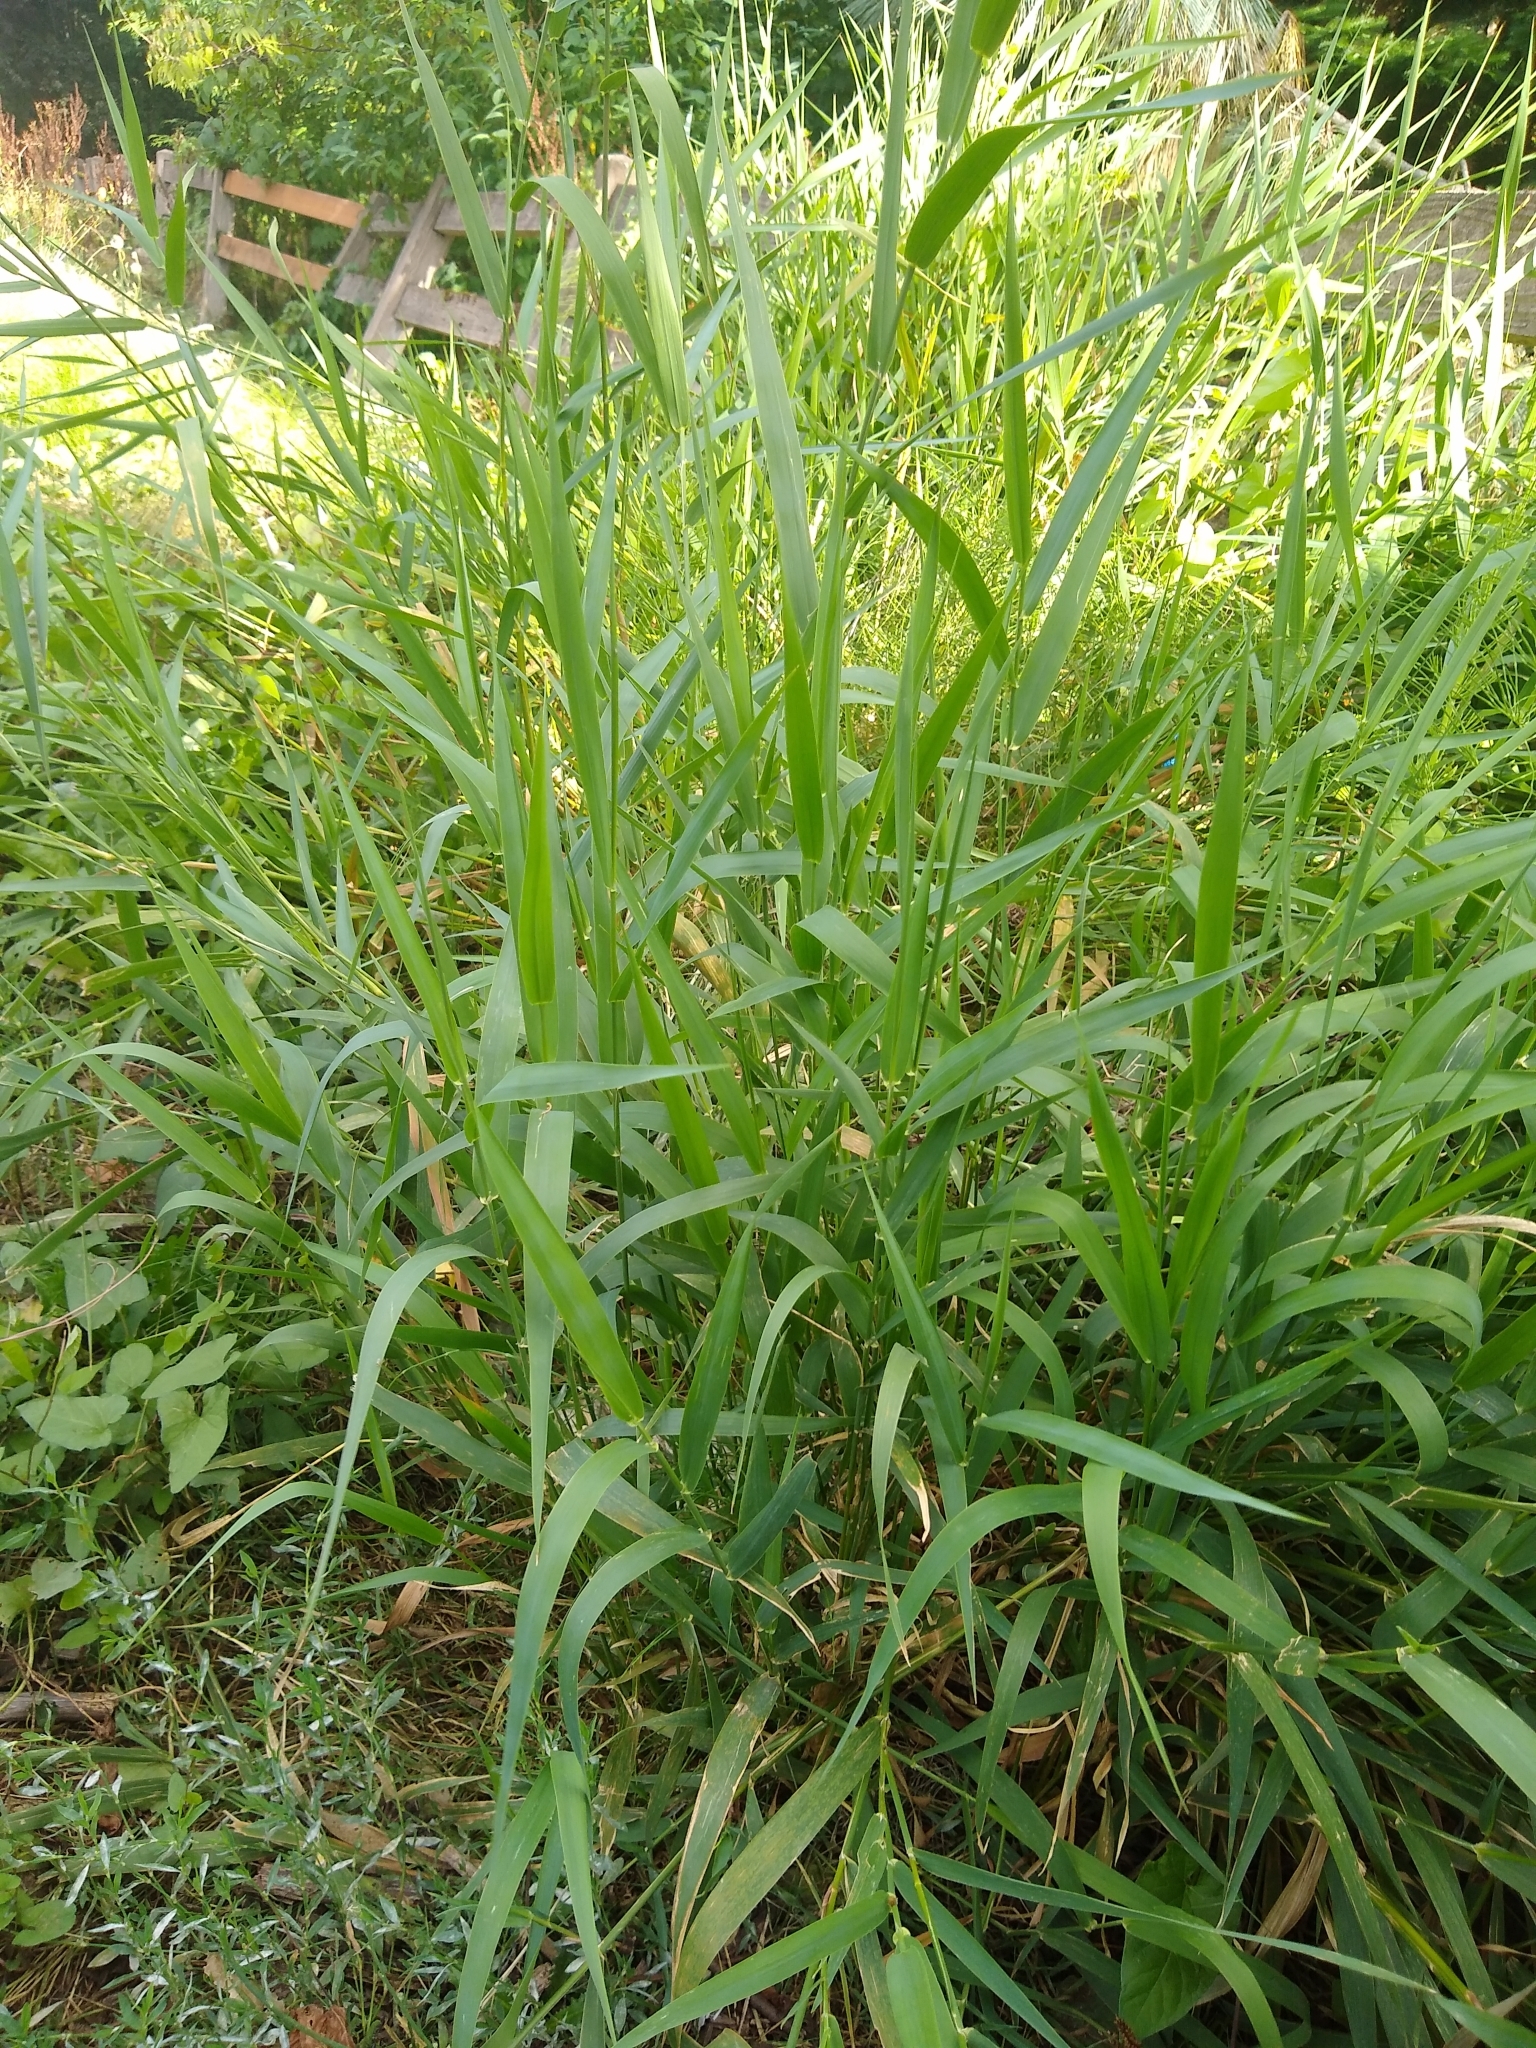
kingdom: Plantae
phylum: Tracheophyta
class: Liliopsida
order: Poales
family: Poaceae
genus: Phalaris
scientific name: Phalaris arundinacea
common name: Reed canary-grass
